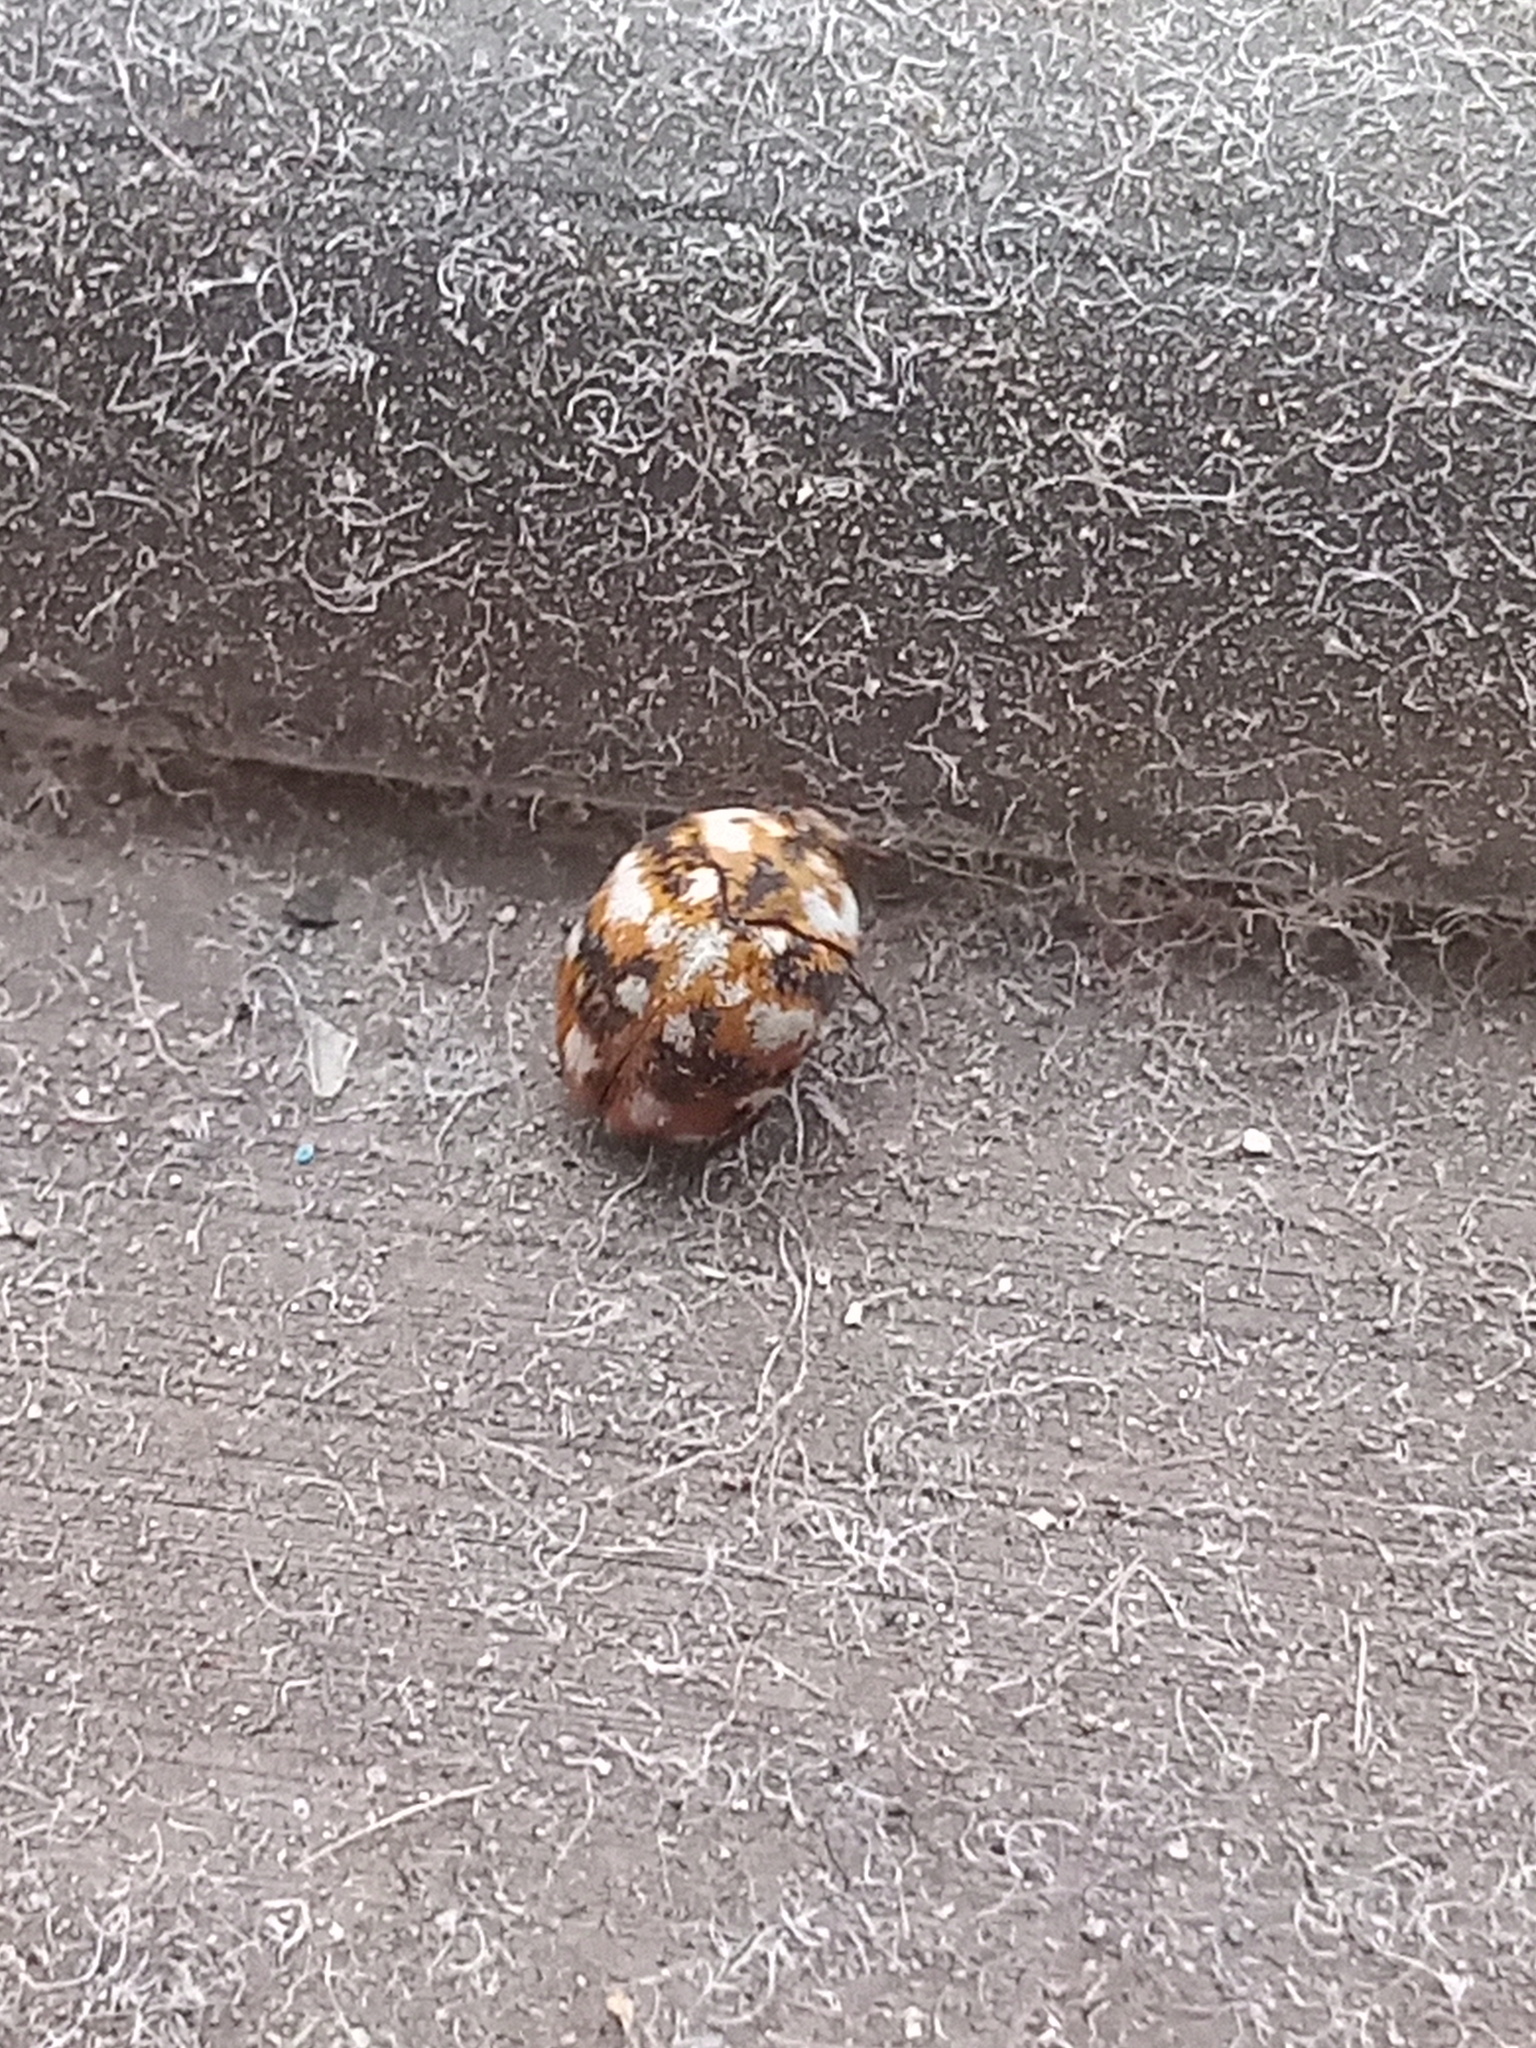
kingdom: Animalia
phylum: Arthropoda
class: Insecta
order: Coleoptera
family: Dermestidae
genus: Anthrenus
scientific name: Anthrenus flavipes
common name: Furniture carpet beetle
